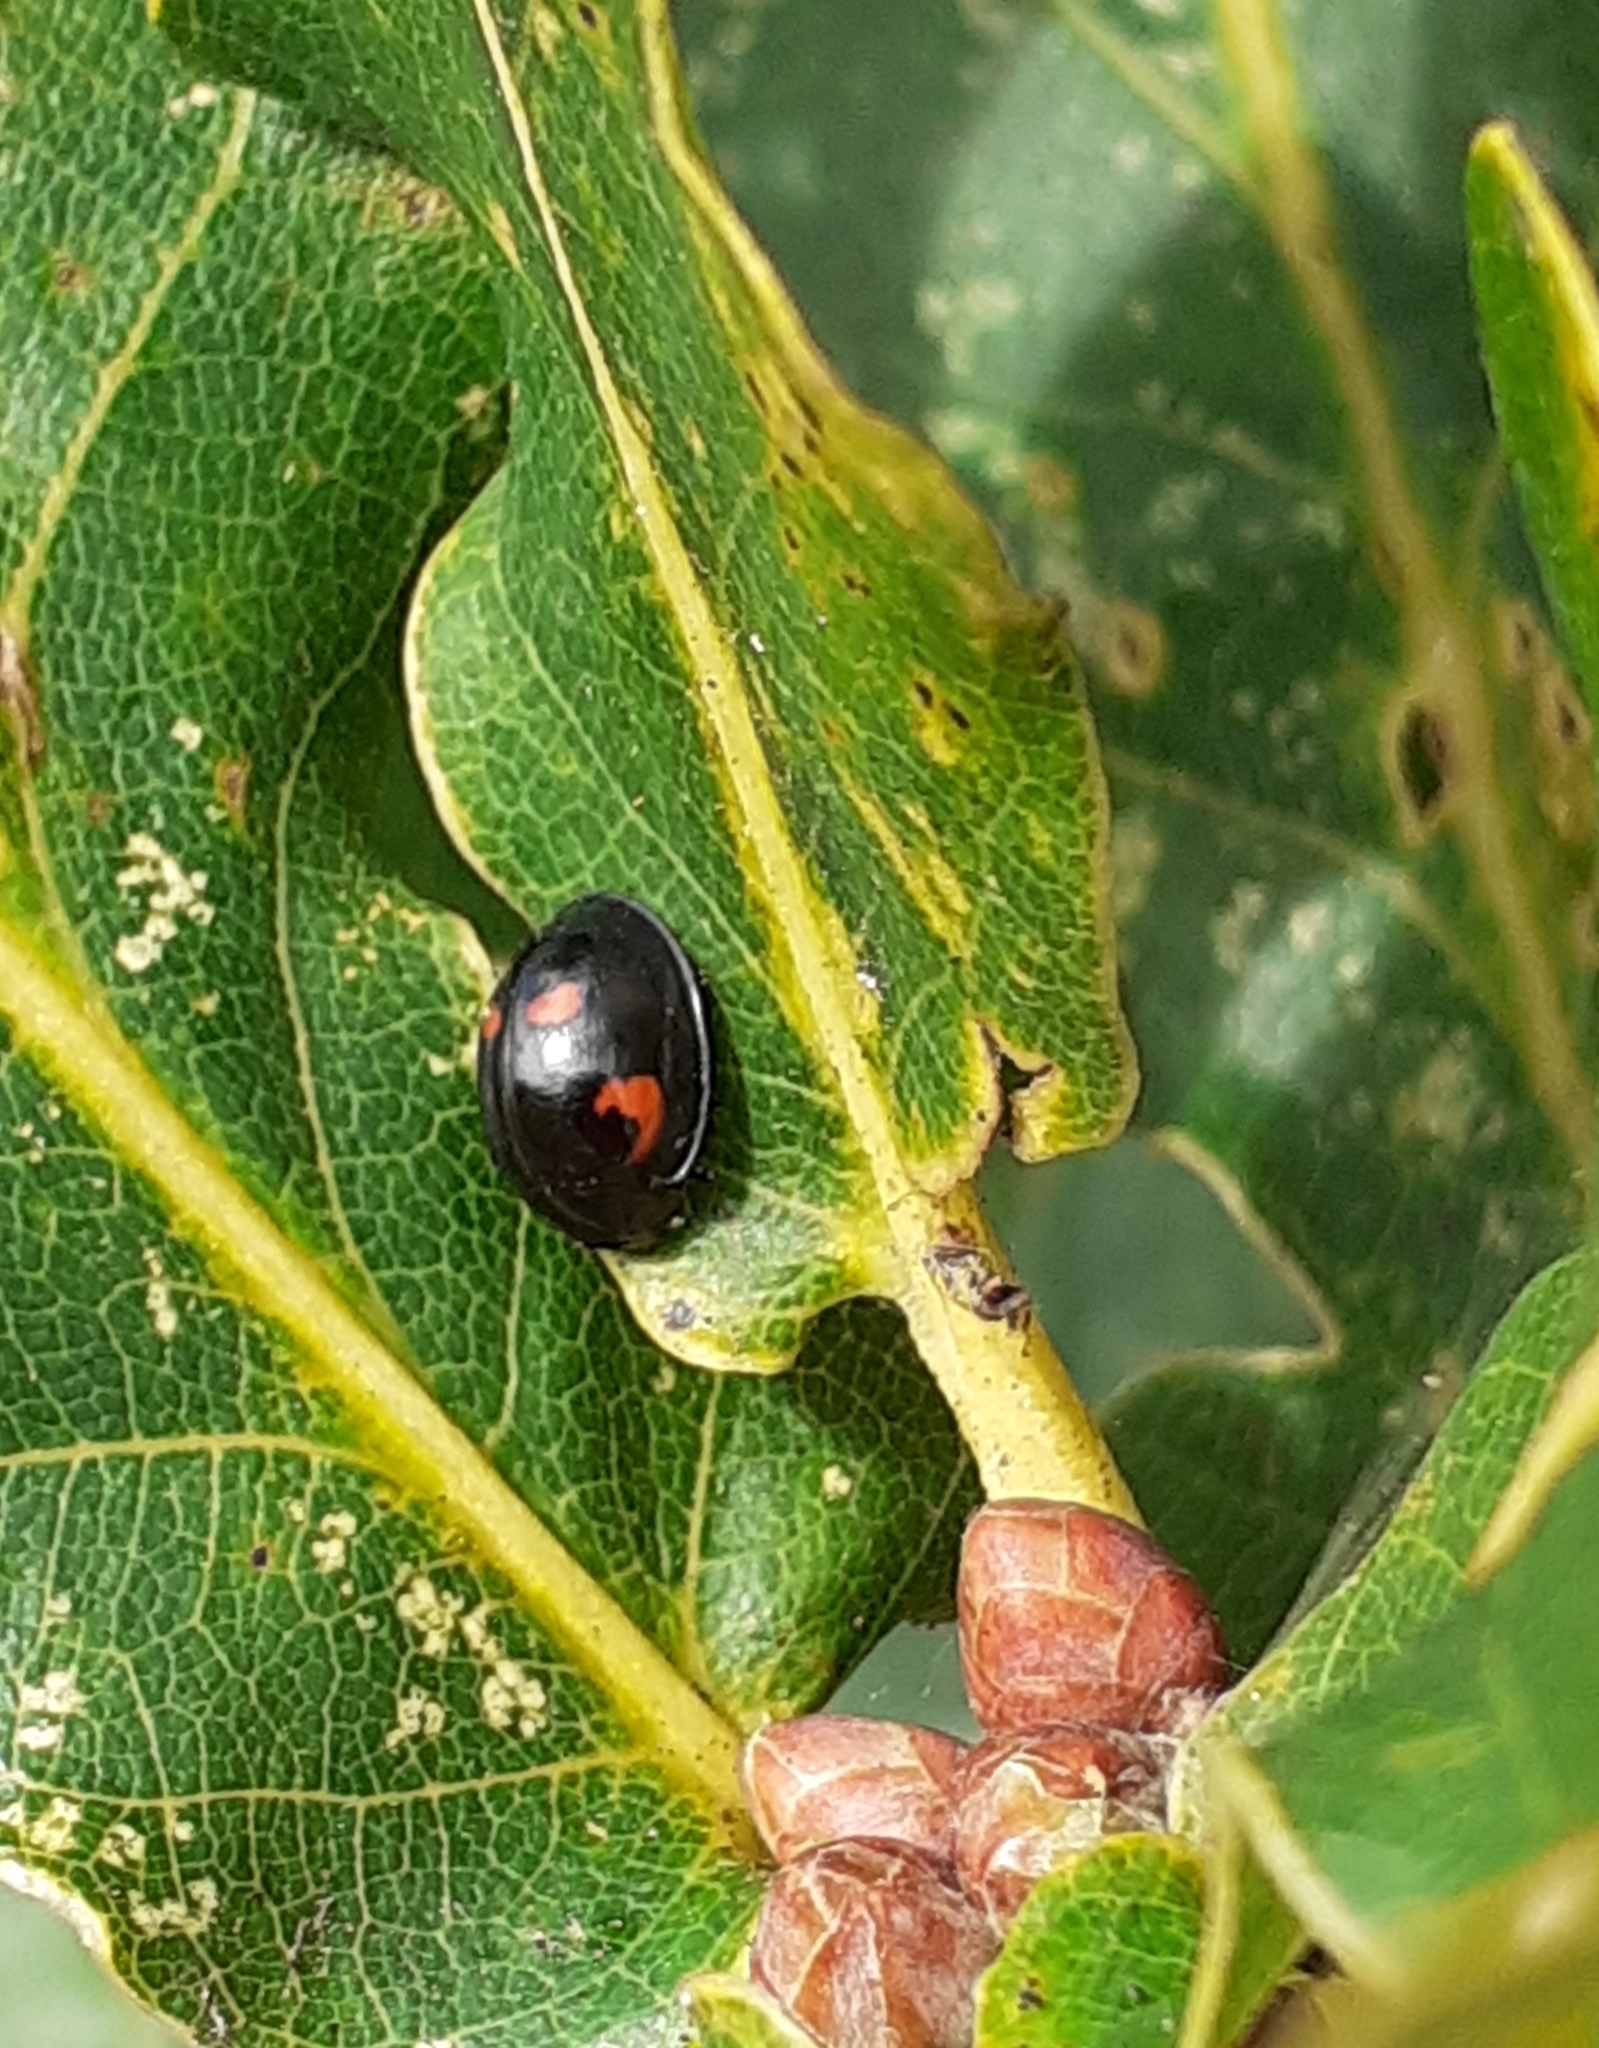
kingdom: Animalia
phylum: Arthropoda
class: Insecta
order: Coleoptera
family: Coccinellidae
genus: Brumus
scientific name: Brumus quadripustulatus
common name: Ladybird beetle
